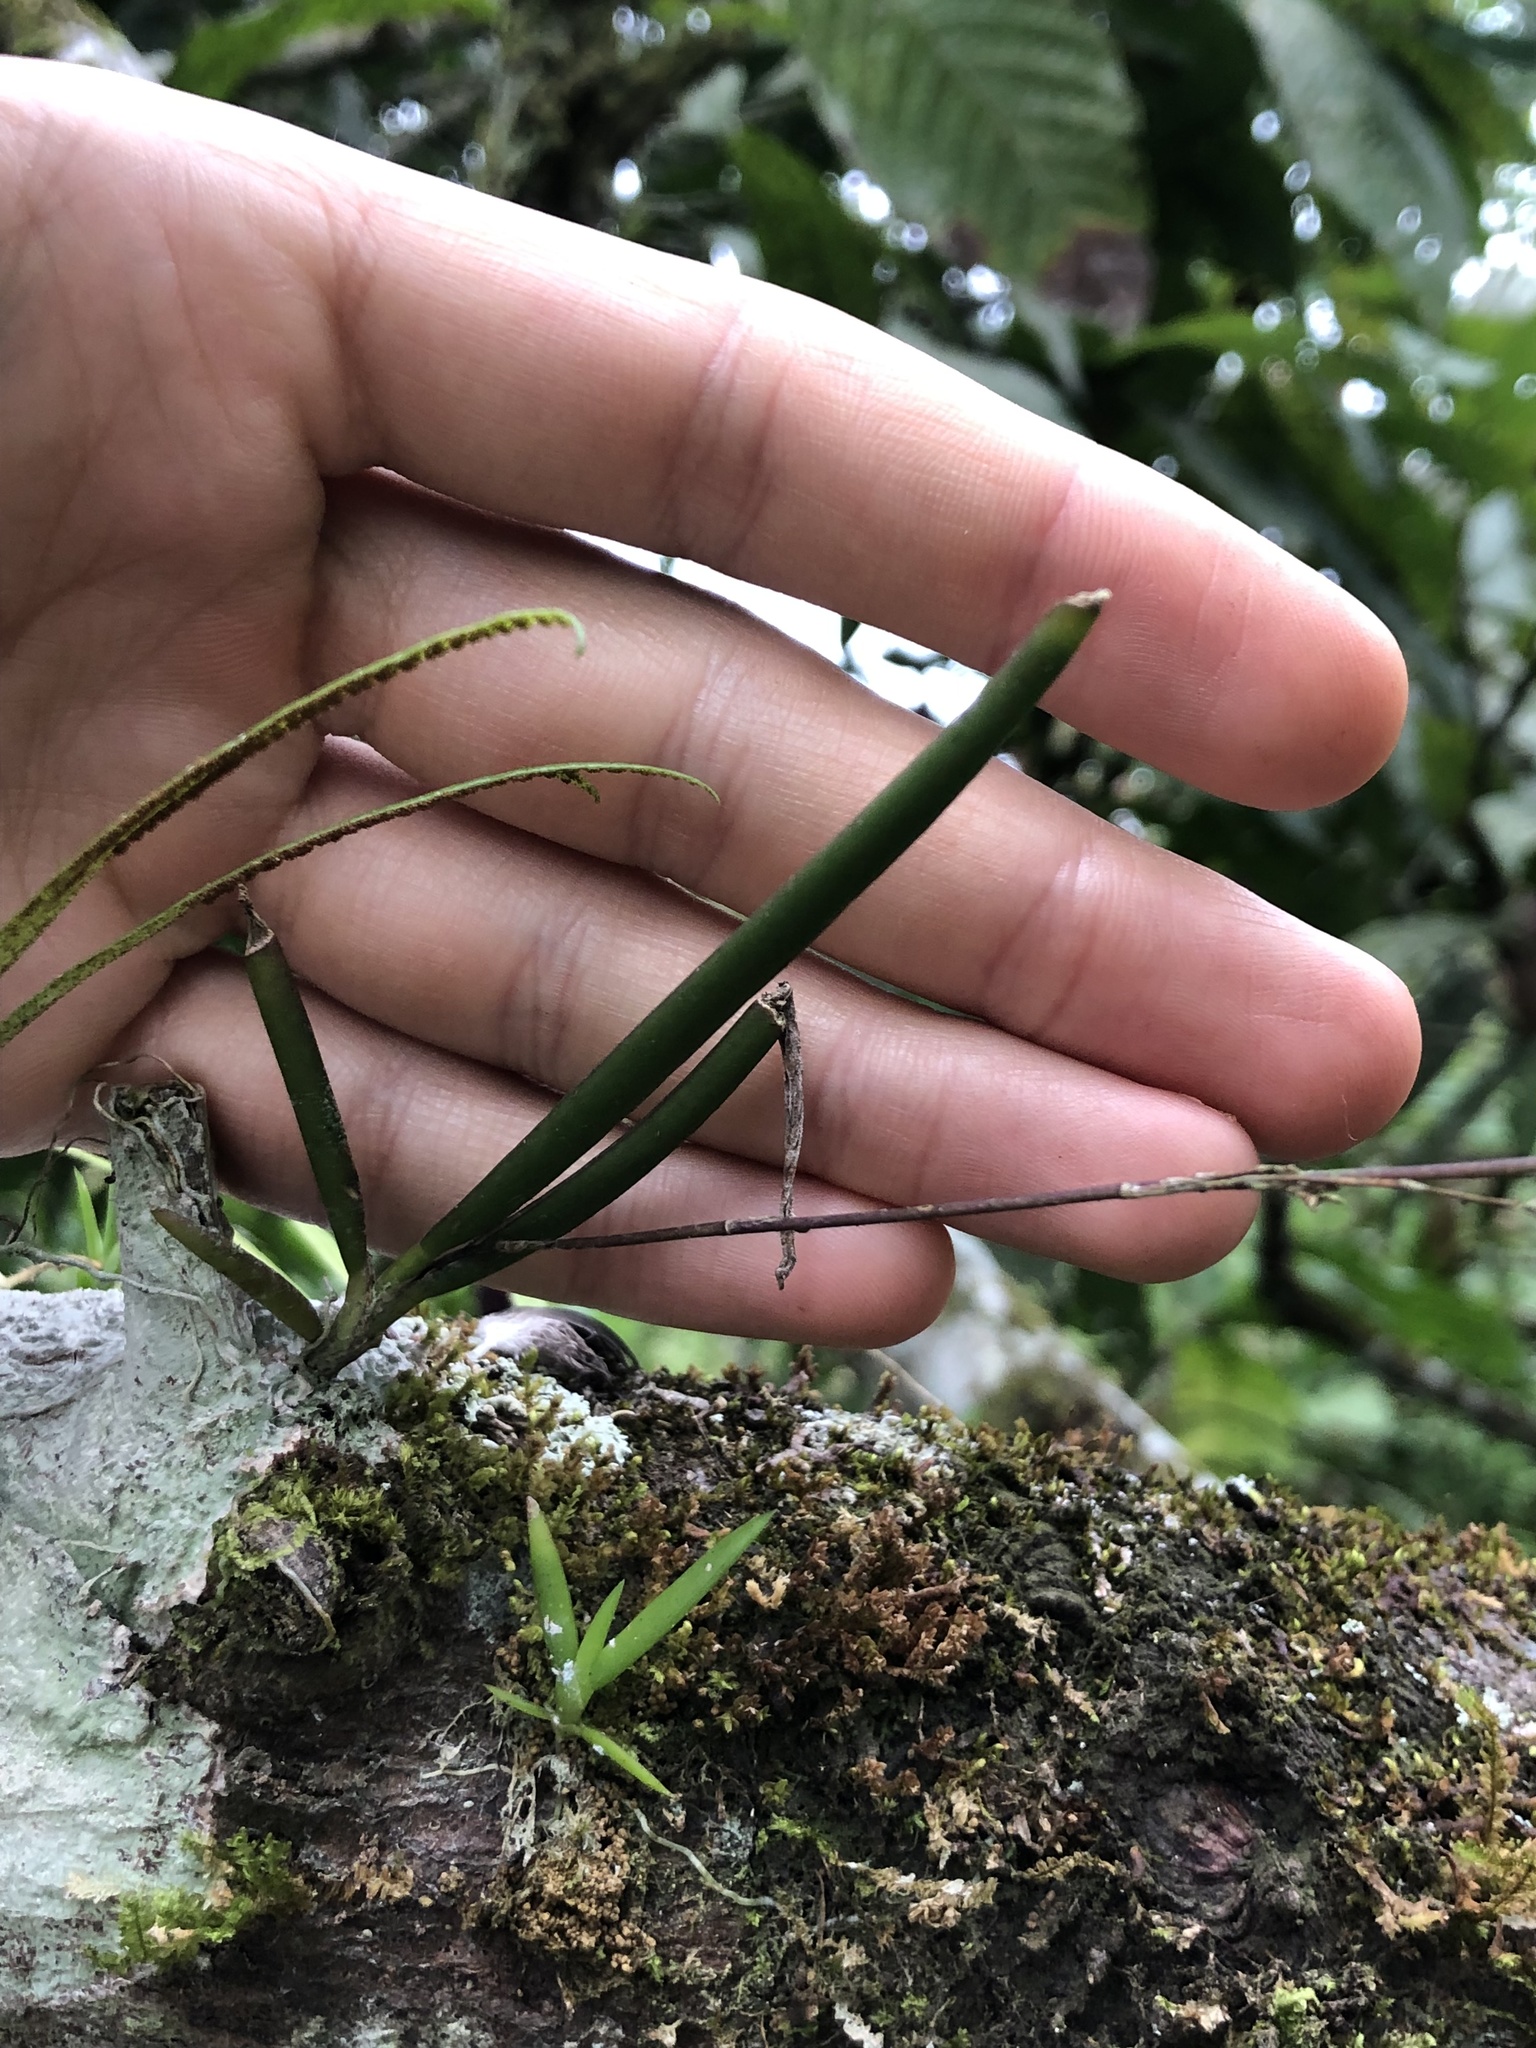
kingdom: Plantae
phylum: Tracheophyta
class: Liliopsida
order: Asparagales
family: Orchidaceae
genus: Ionopsis
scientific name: Ionopsis satyrioides
